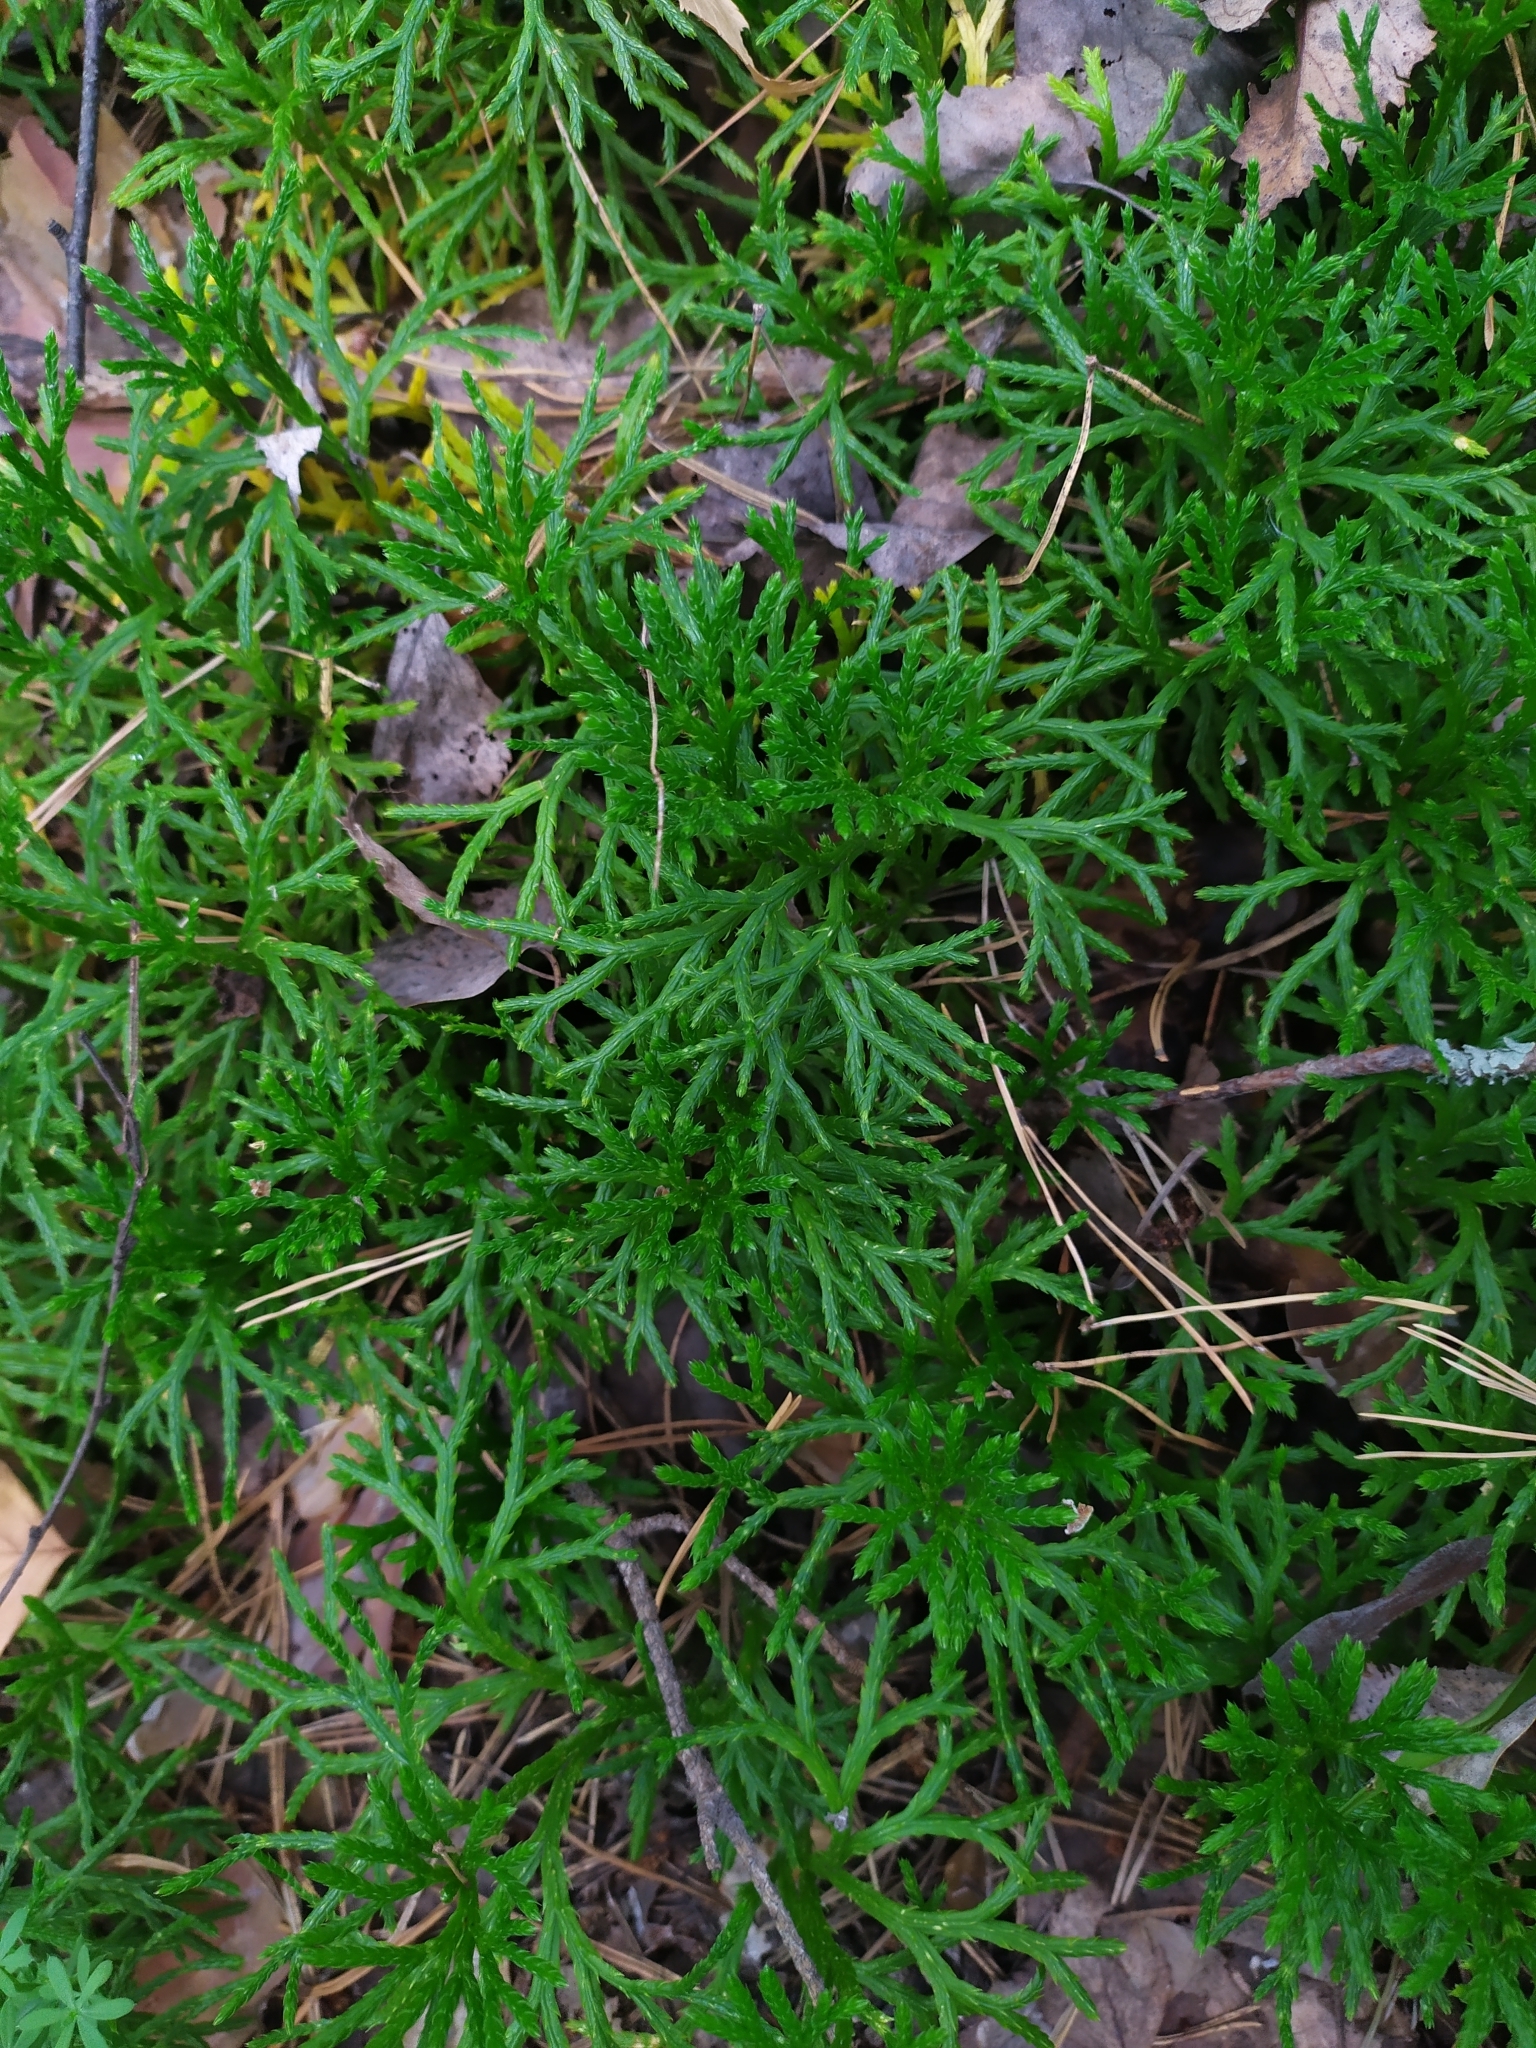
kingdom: Plantae
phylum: Tracheophyta
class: Lycopodiopsida
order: Lycopodiales
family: Lycopodiaceae
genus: Diphasiastrum
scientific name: Diphasiastrum complanatum
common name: Northern running-pine
